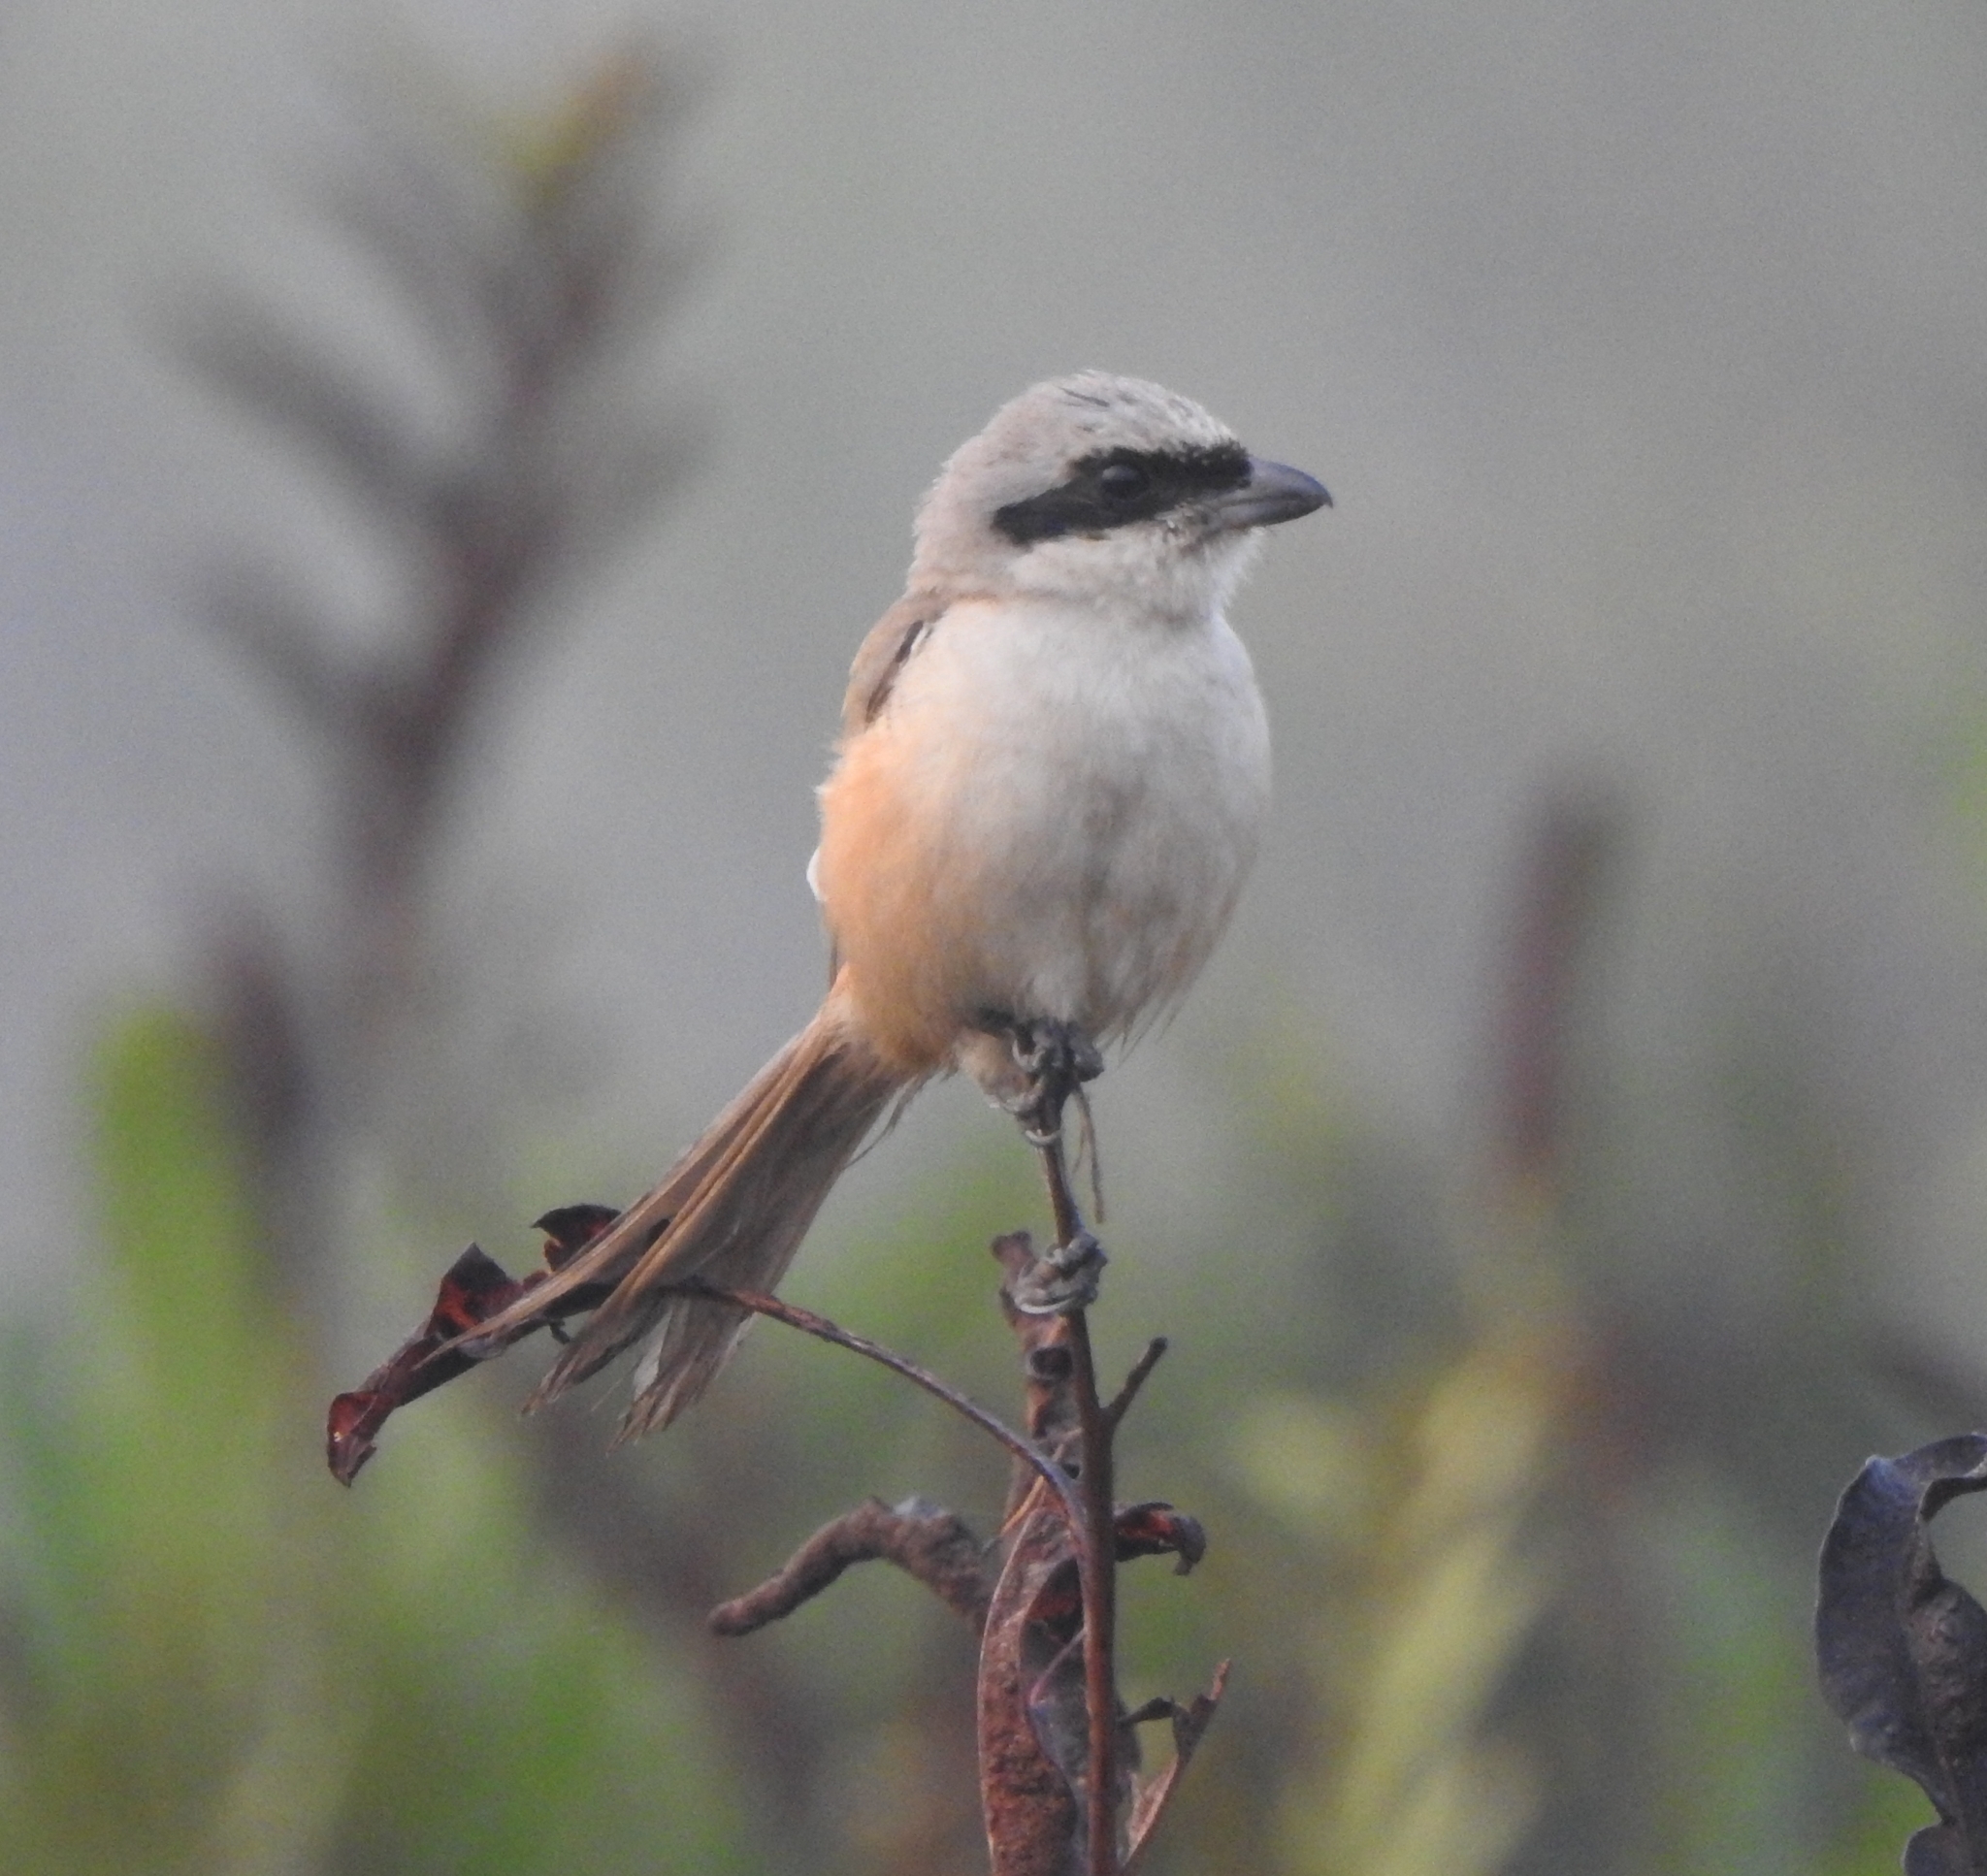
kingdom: Animalia
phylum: Chordata
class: Aves
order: Passeriformes
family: Laniidae
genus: Lanius
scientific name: Lanius schach
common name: Long-tailed shrike
